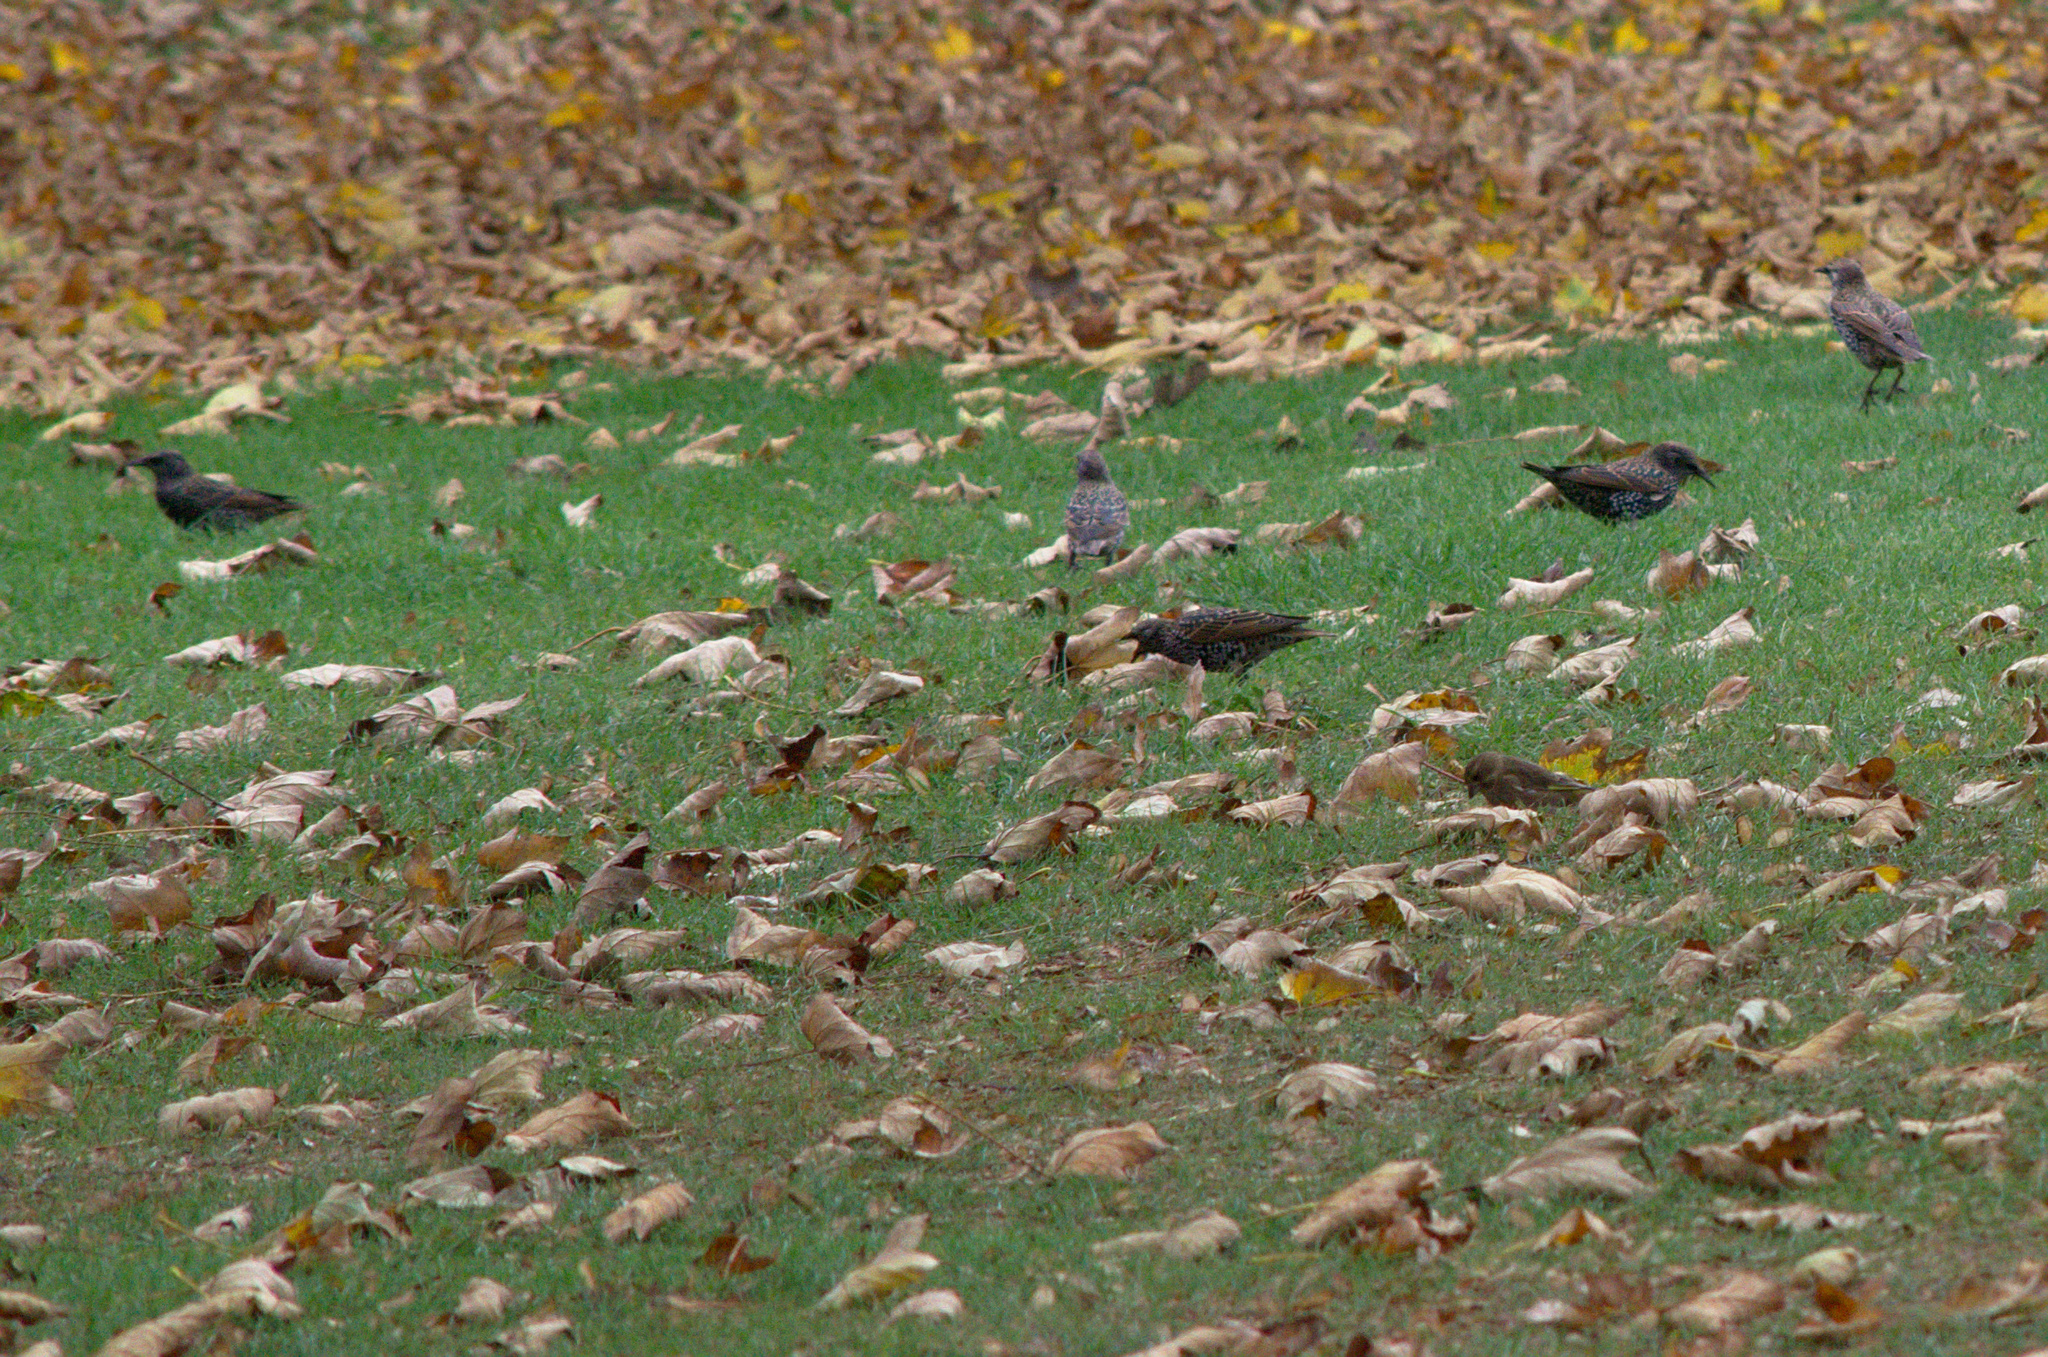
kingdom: Animalia
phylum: Chordata
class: Aves
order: Passeriformes
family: Sturnidae
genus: Sturnus
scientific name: Sturnus vulgaris
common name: Common starling
